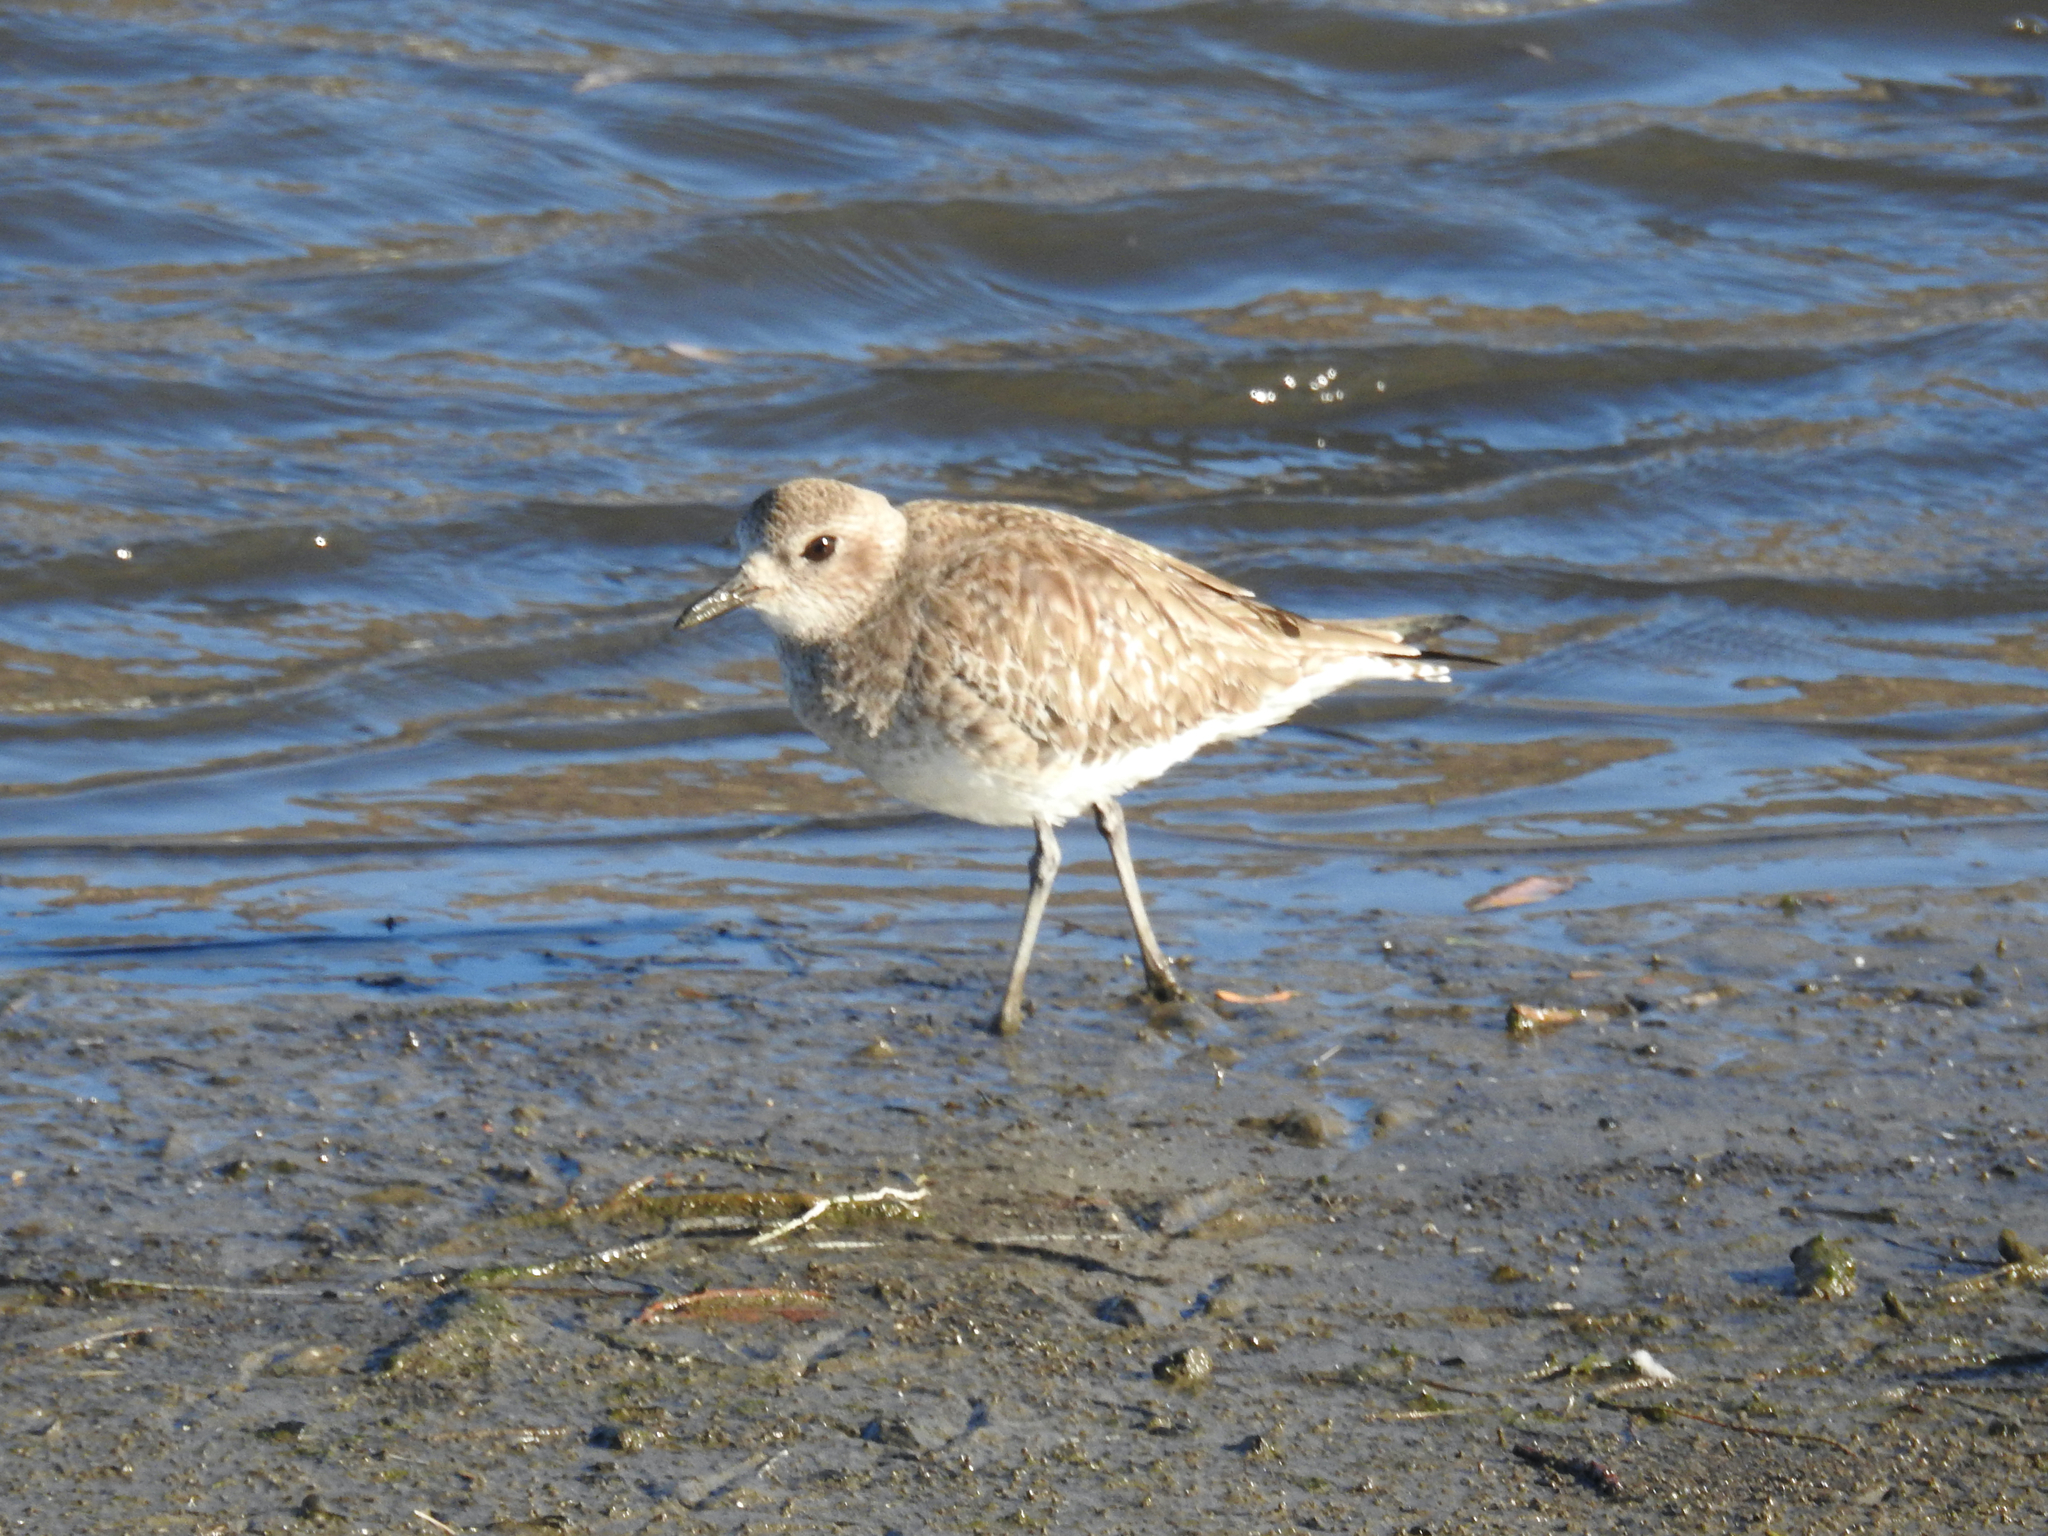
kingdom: Animalia
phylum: Chordata
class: Aves
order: Charadriiformes
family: Charadriidae
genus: Pluvialis
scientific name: Pluvialis squatarola
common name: Grey plover
